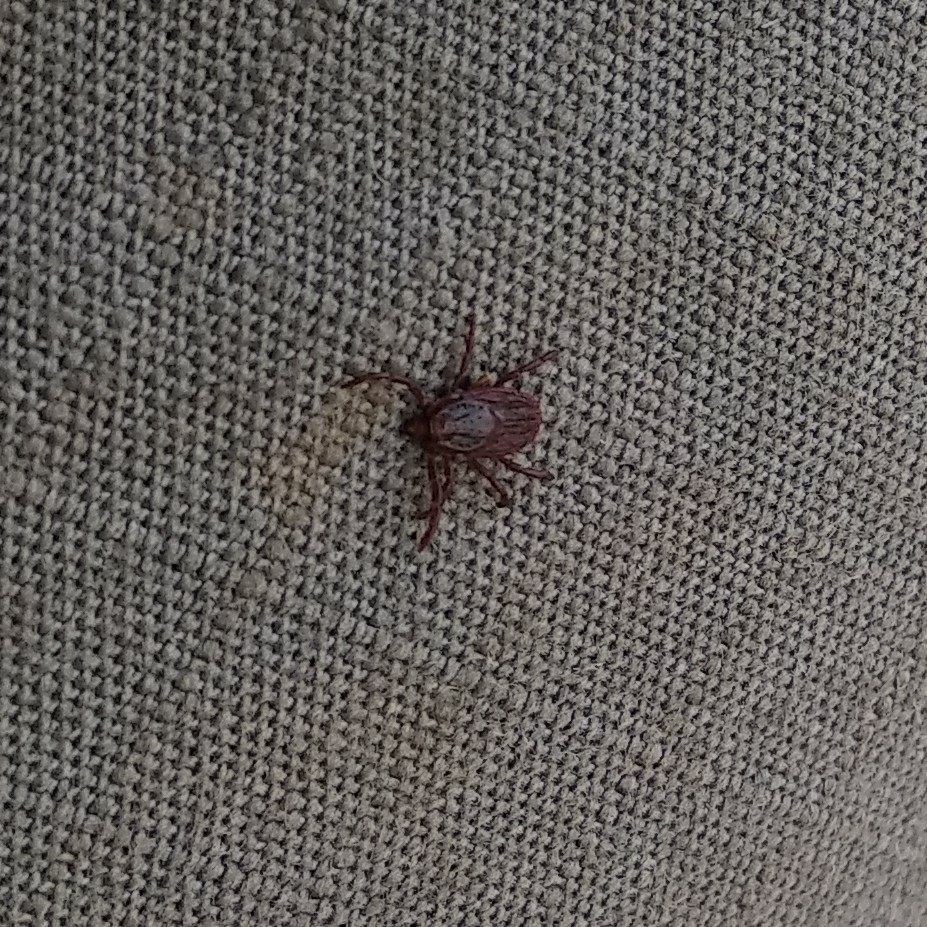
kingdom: Animalia
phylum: Arthropoda
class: Arachnida
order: Ixodida
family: Ixodidae
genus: Rhipicephalus
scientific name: Rhipicephalus sanguineus
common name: Brown dog tick
